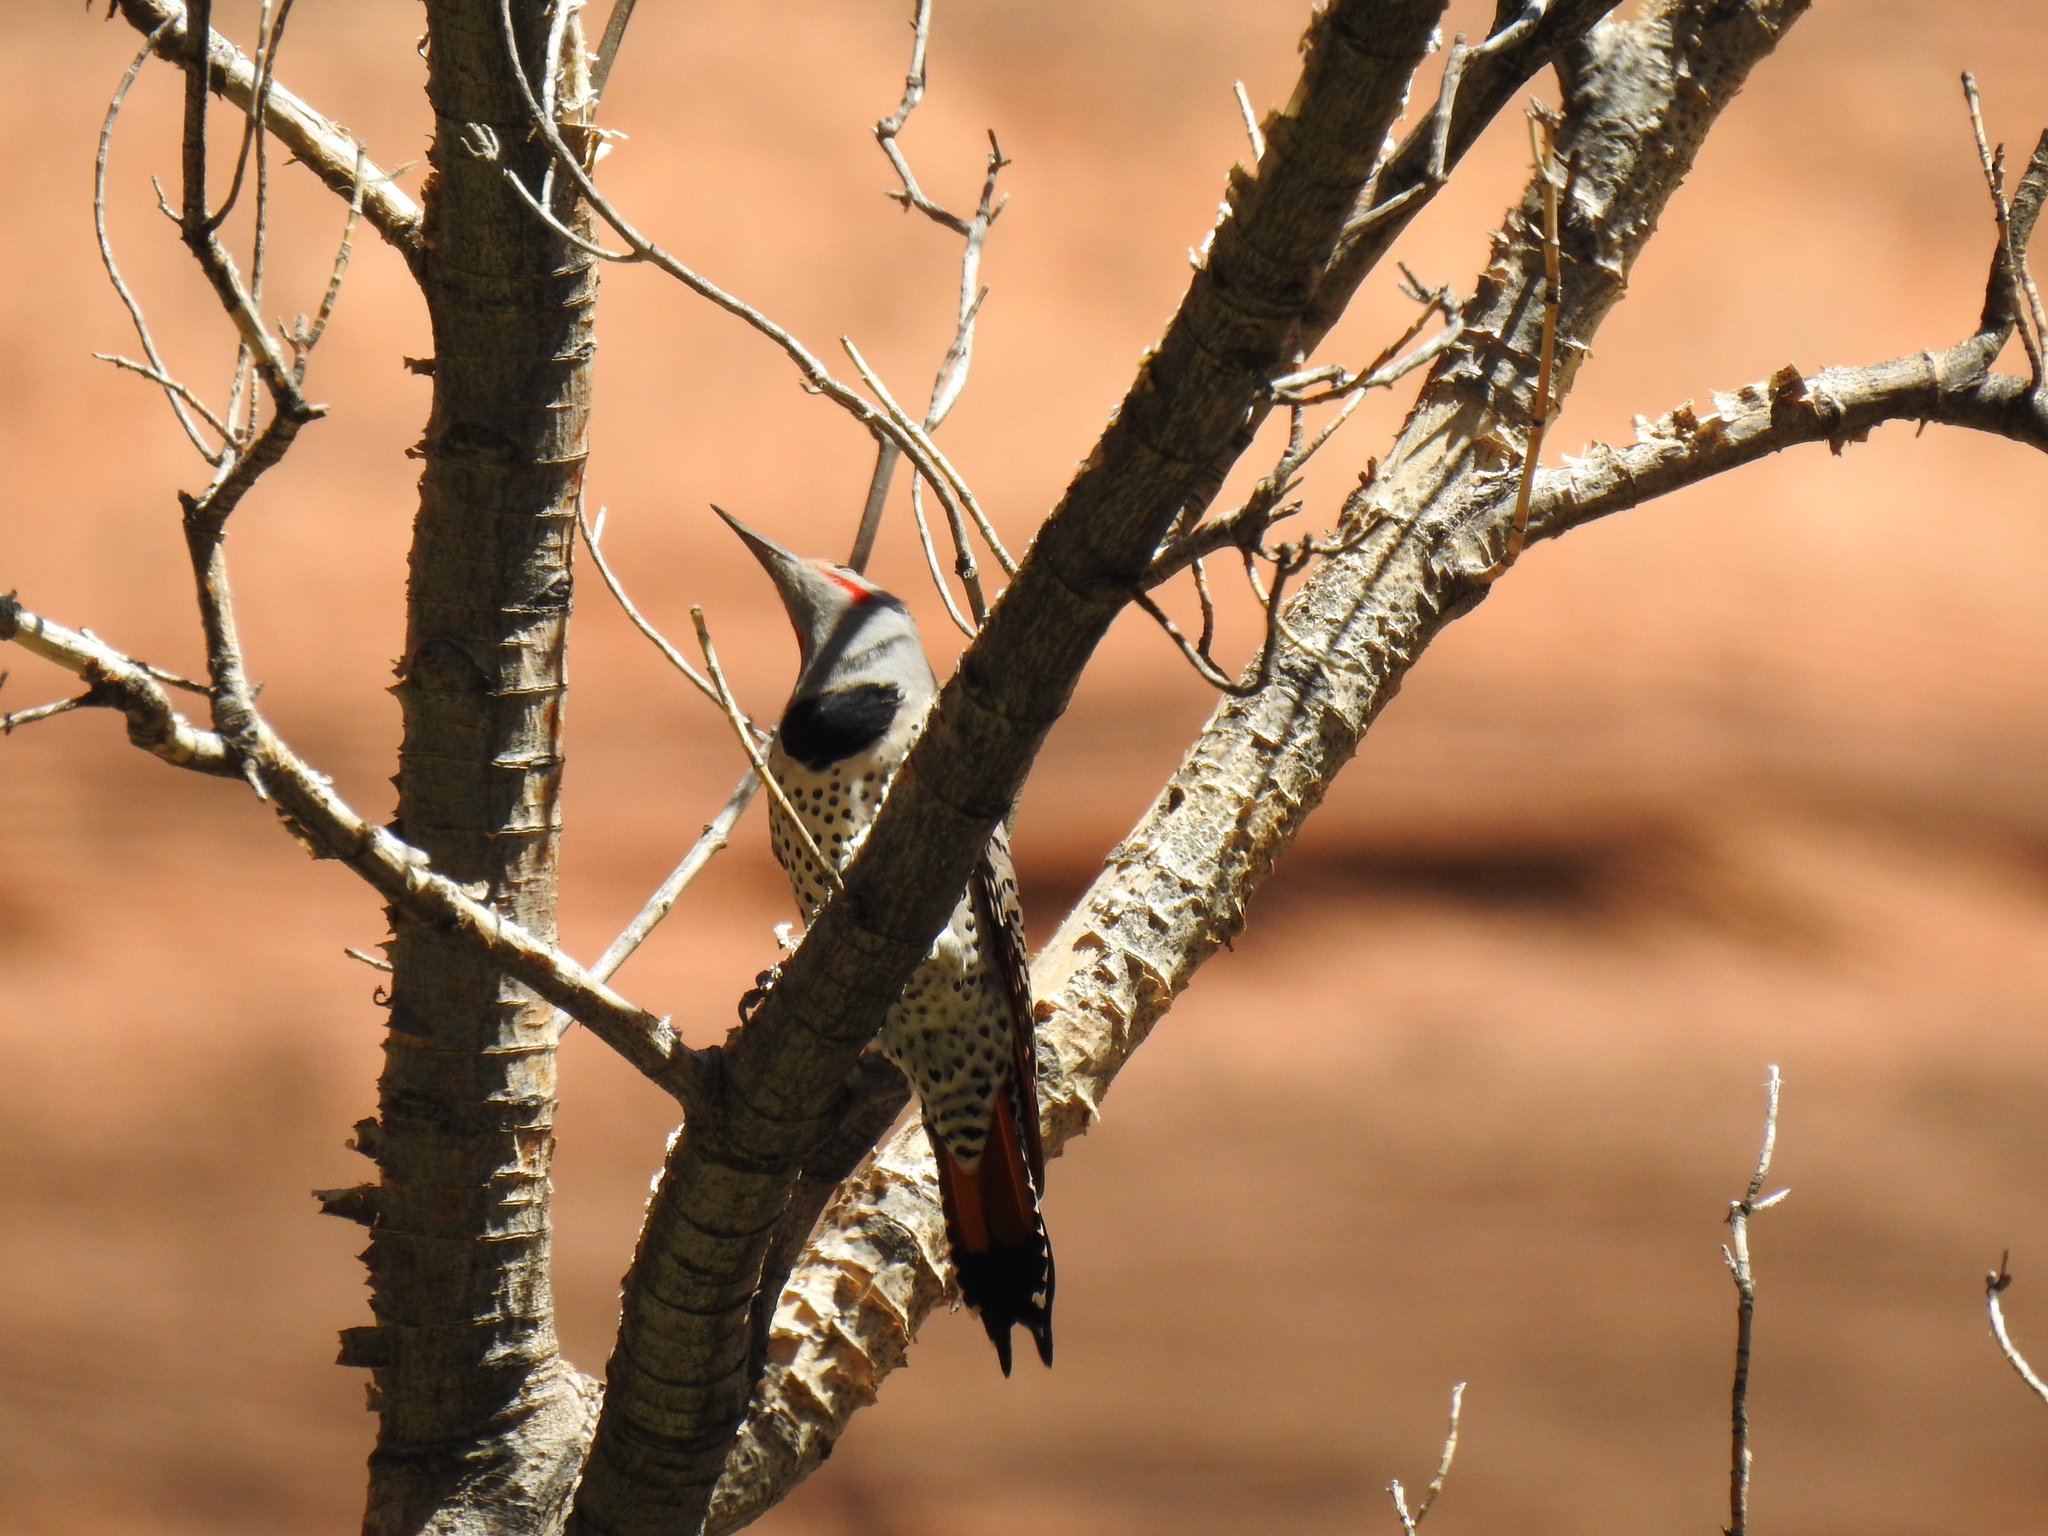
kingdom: Animalia
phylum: Chordata
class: Aves
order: Piciformes
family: Picidae
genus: Colaptes
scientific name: Colaptes auratus
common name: Northern flicker
